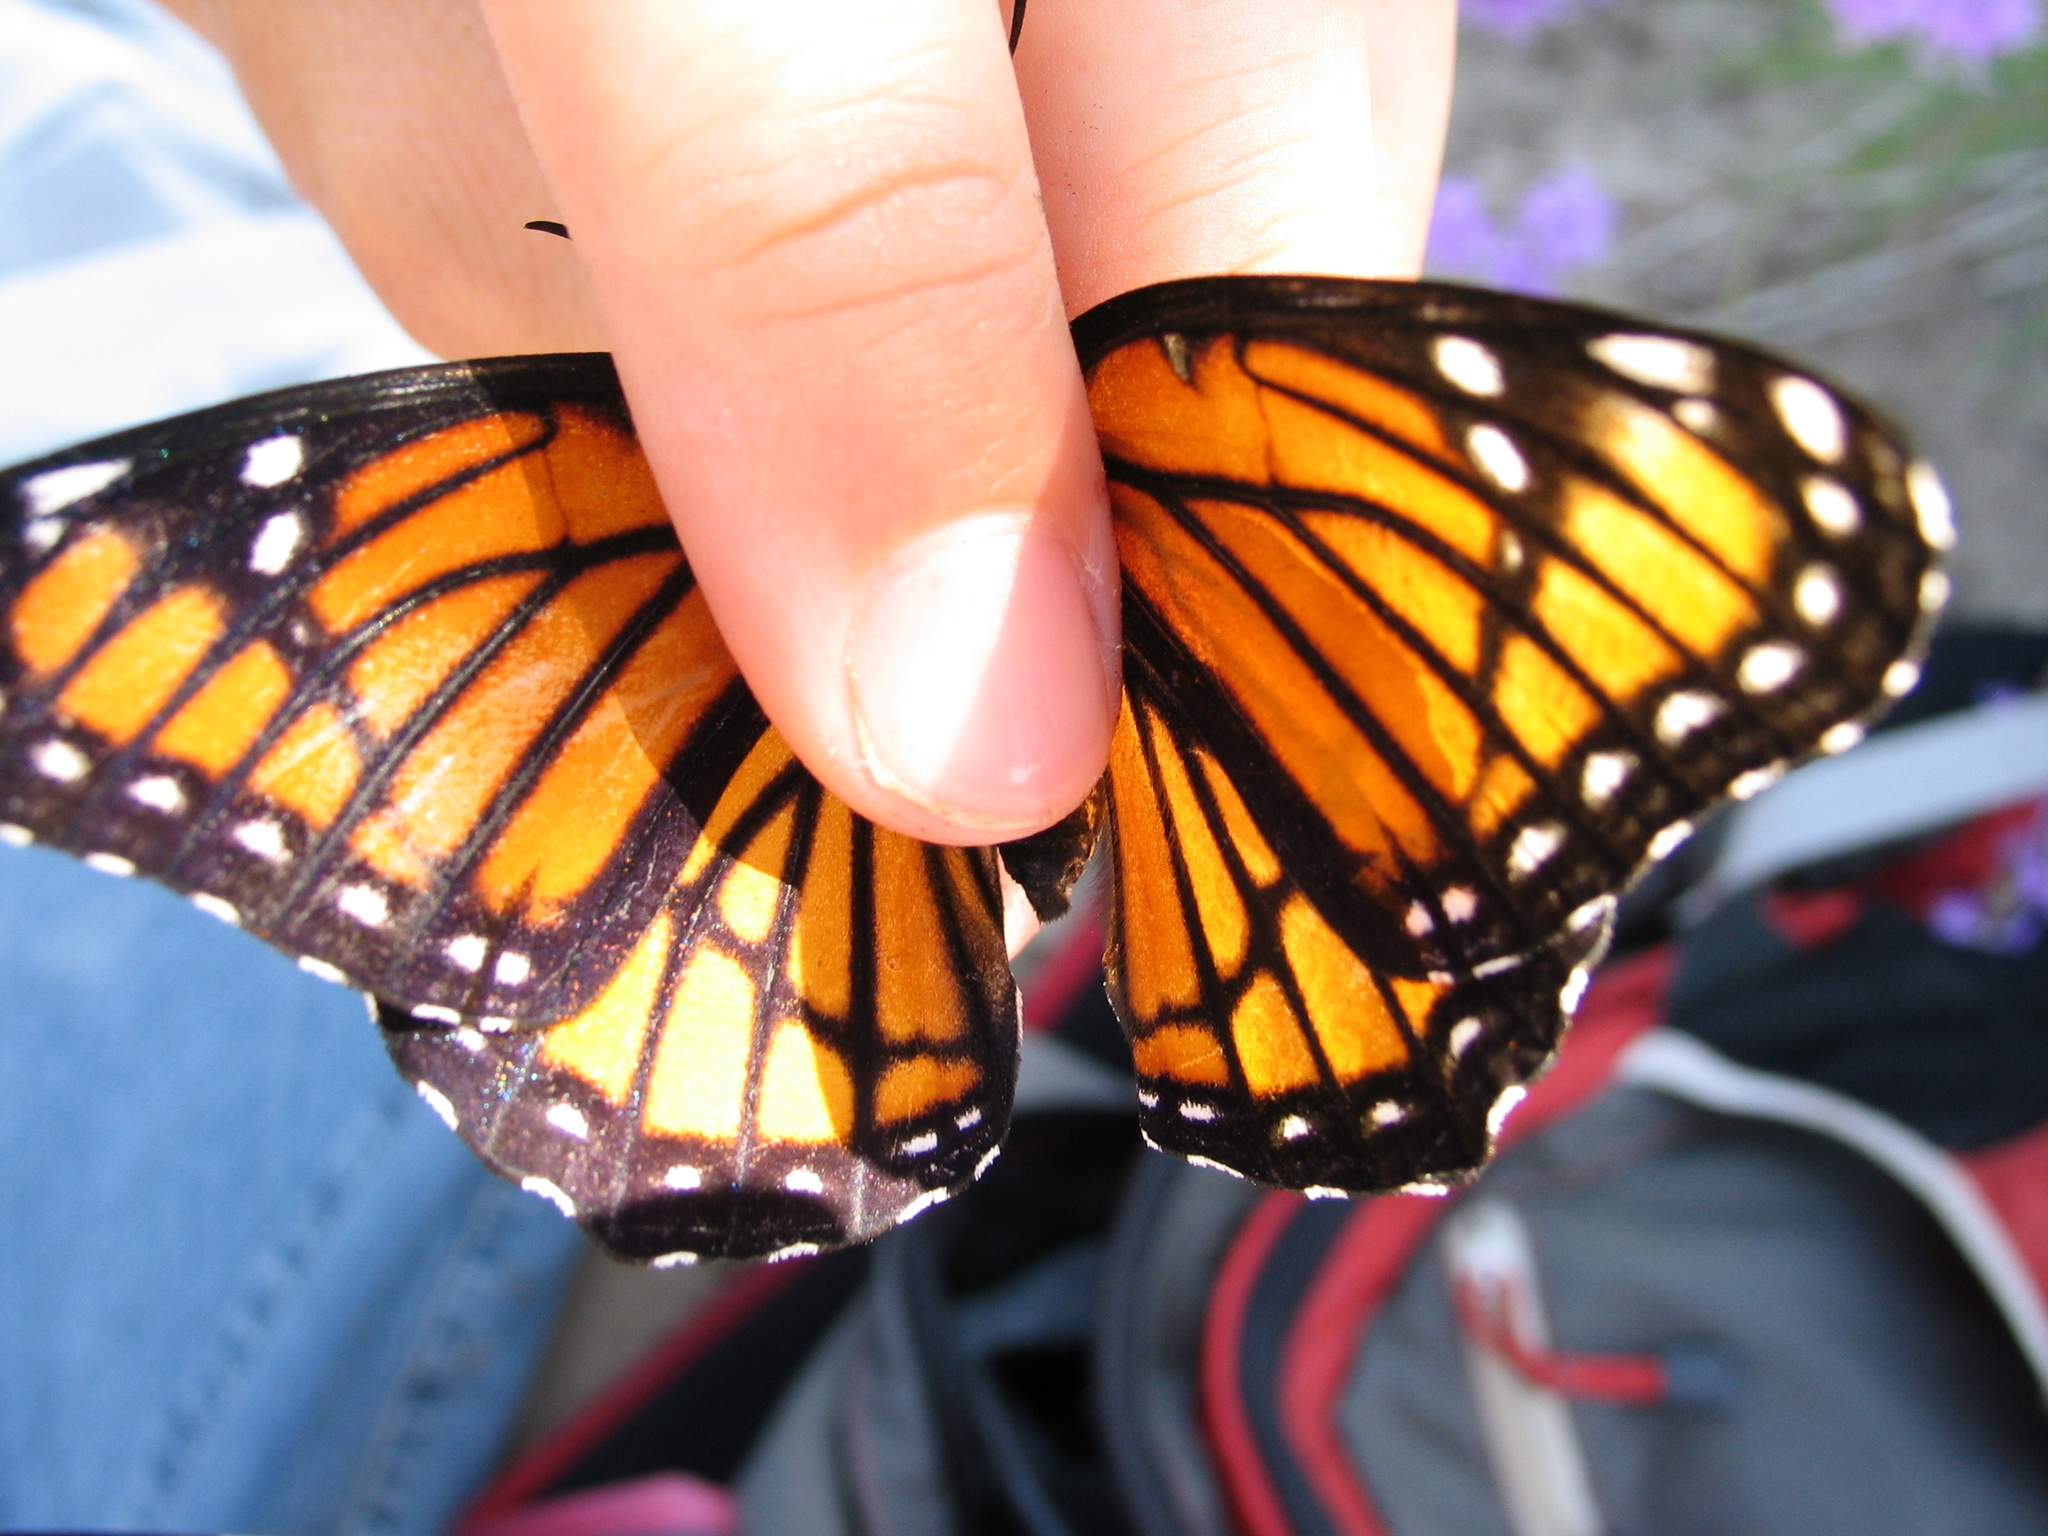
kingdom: Animalia
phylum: Arthropoda
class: Insecta
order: Lepidoptera
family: Nymphalidae
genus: Limenitis
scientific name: Limenitis archippus
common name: Viceroy
